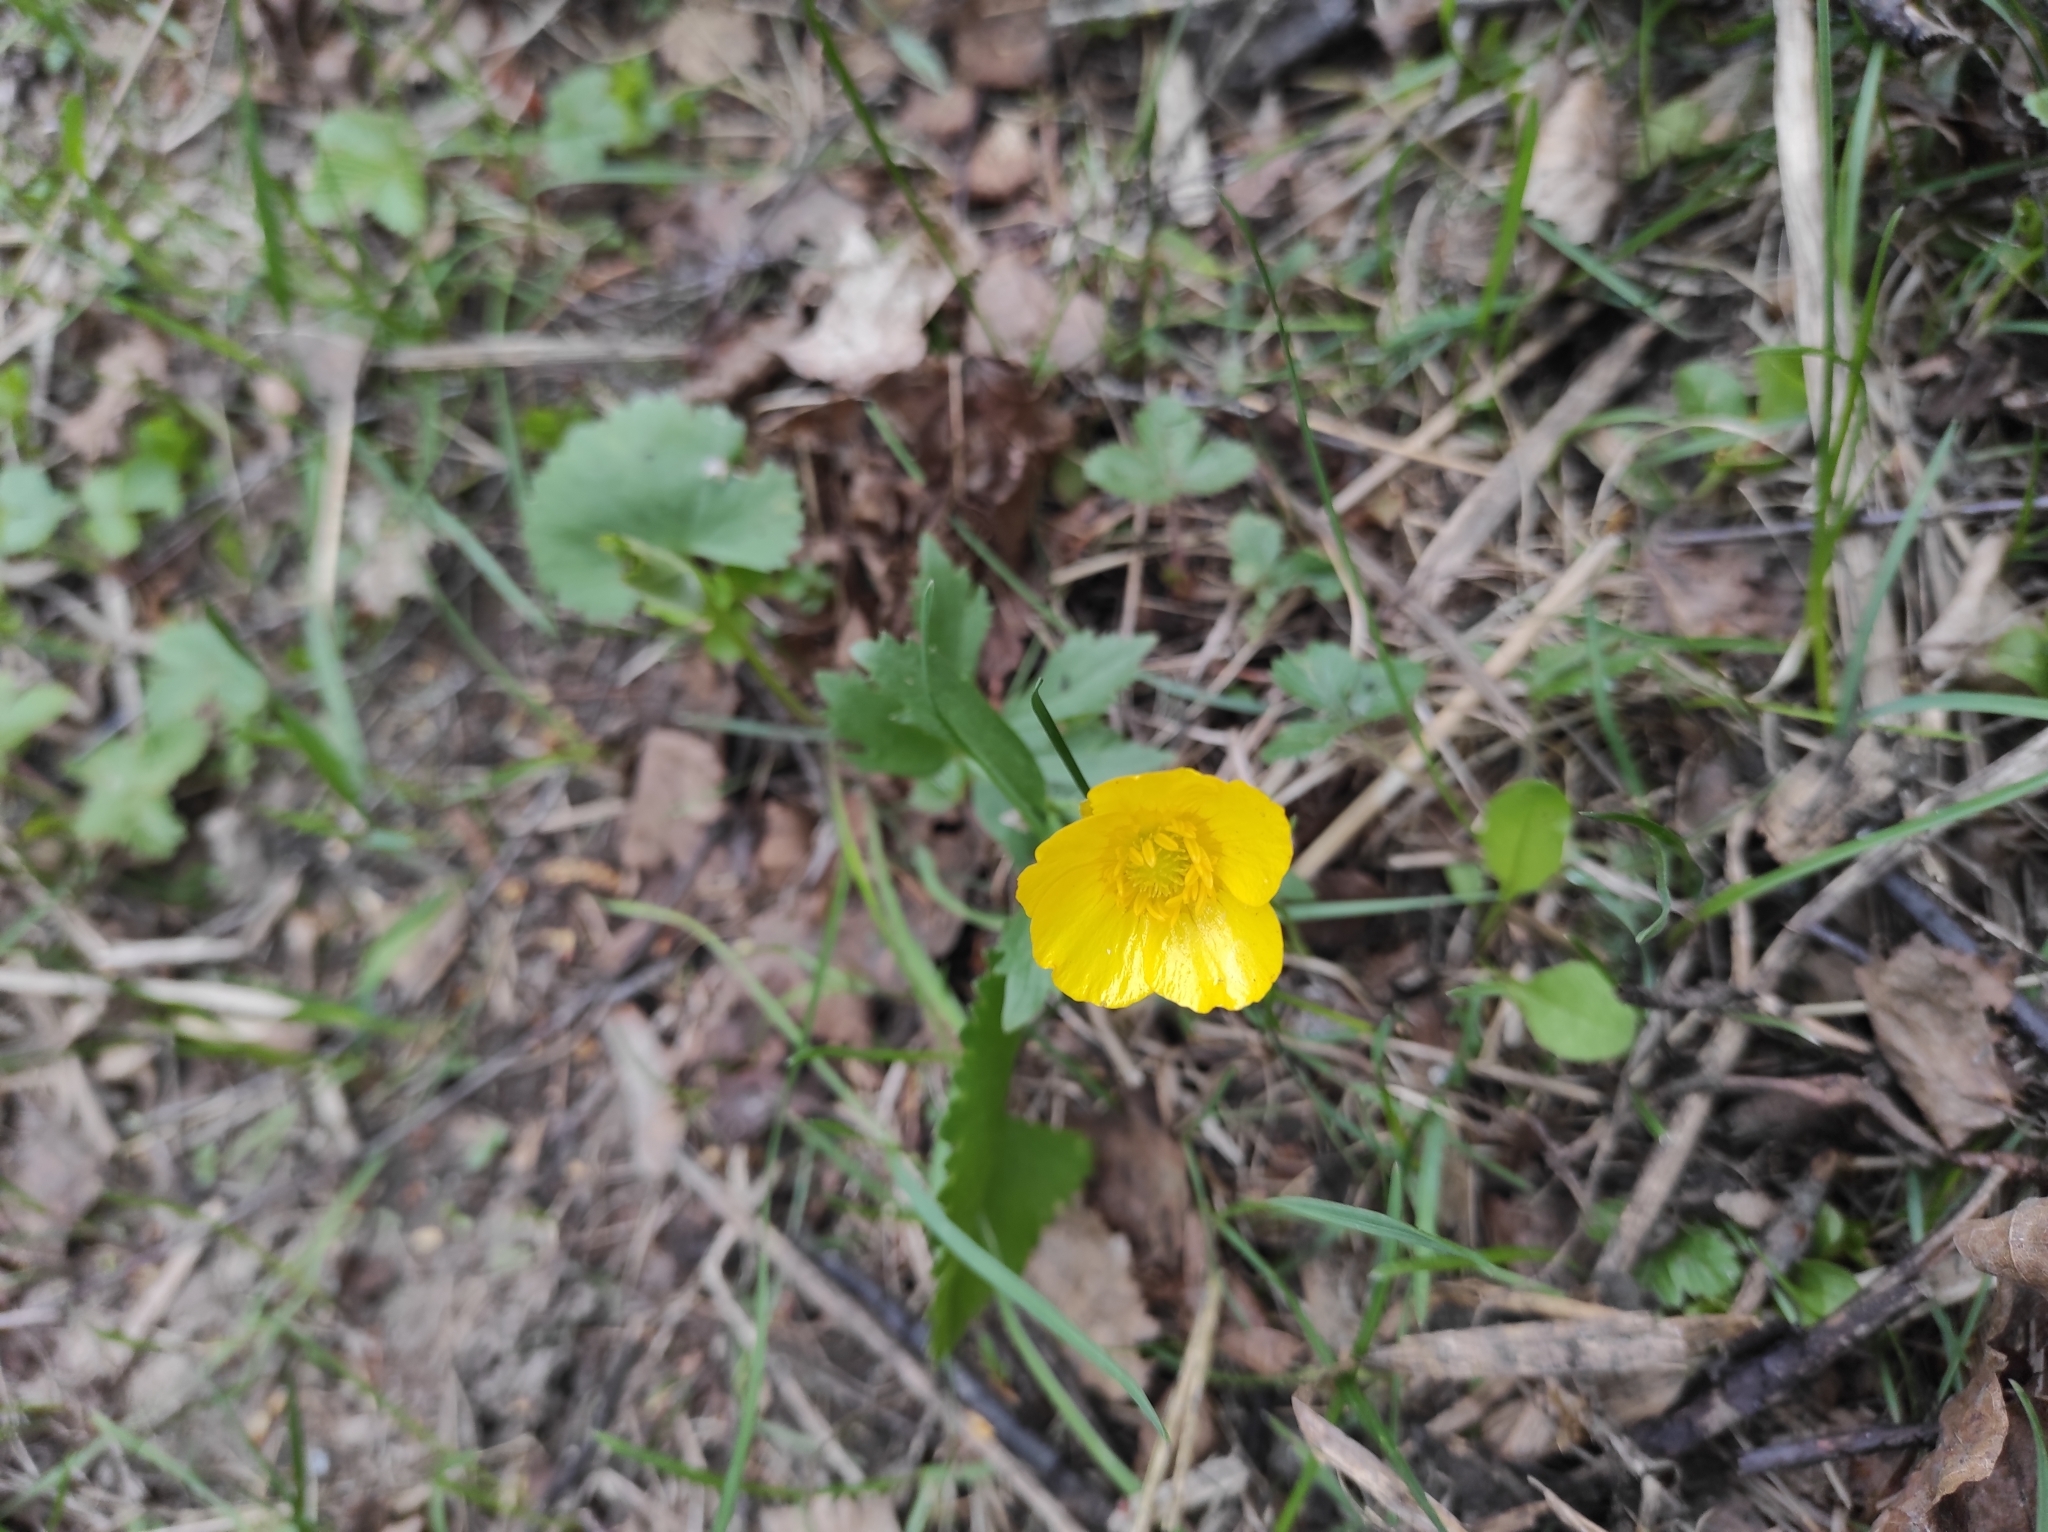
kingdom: Plantae
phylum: Tracheophyta
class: Magnoliopsida
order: Ranunculales
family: Ranunculaceae
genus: Ranunculus
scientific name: Ranunculus cassubicus
